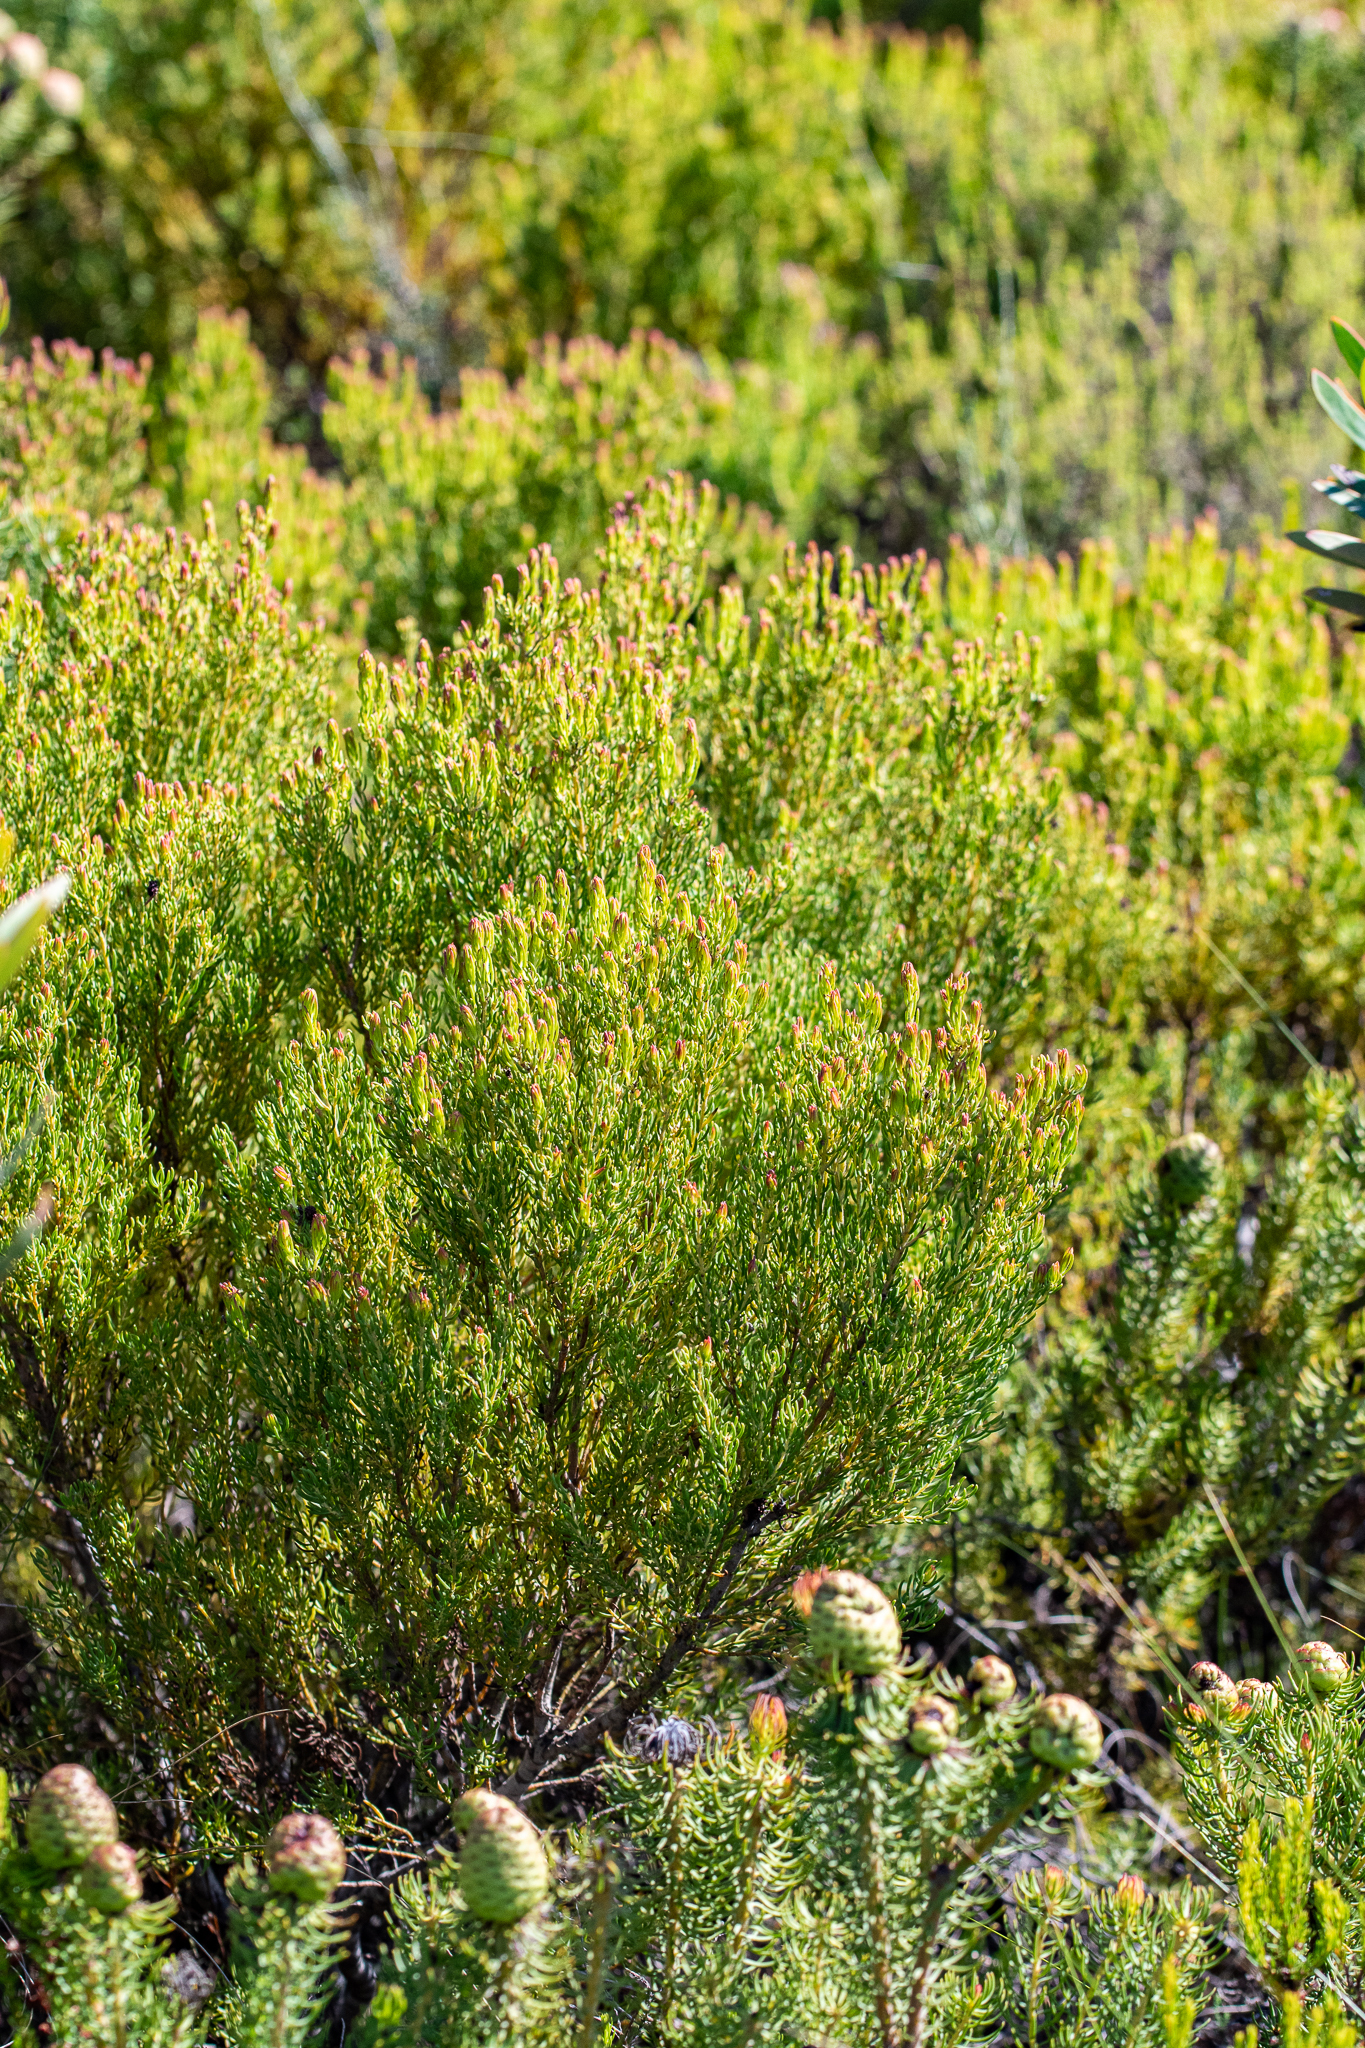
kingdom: Plantae
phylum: Tracheophyta
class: Magnoliopsida
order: Proteales
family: Proteaceae
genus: Leucadendron
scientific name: Leucadendron teretifolium
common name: Needle-leaf conebush
